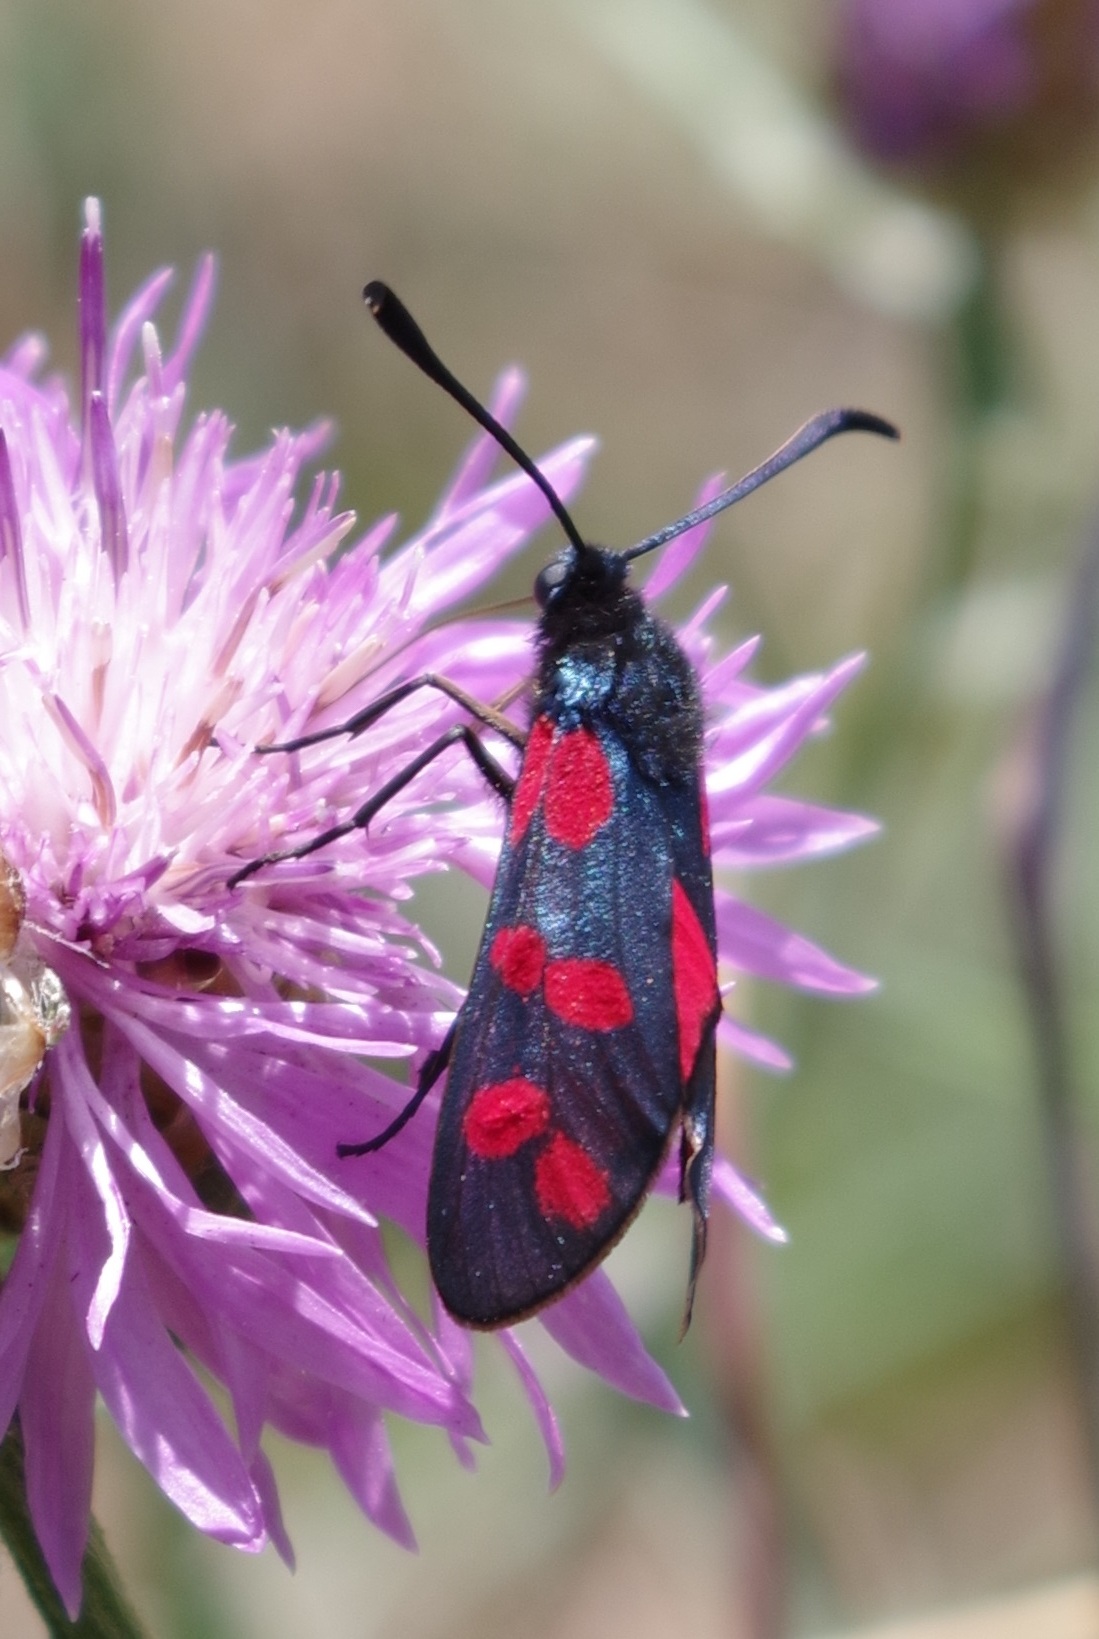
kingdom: Animalia
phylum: Arthropoda
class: Insecta
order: Lepidoptera
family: Zygaenidae
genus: Zygaena
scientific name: Zygaena filipendulae
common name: Six-spot burnet
